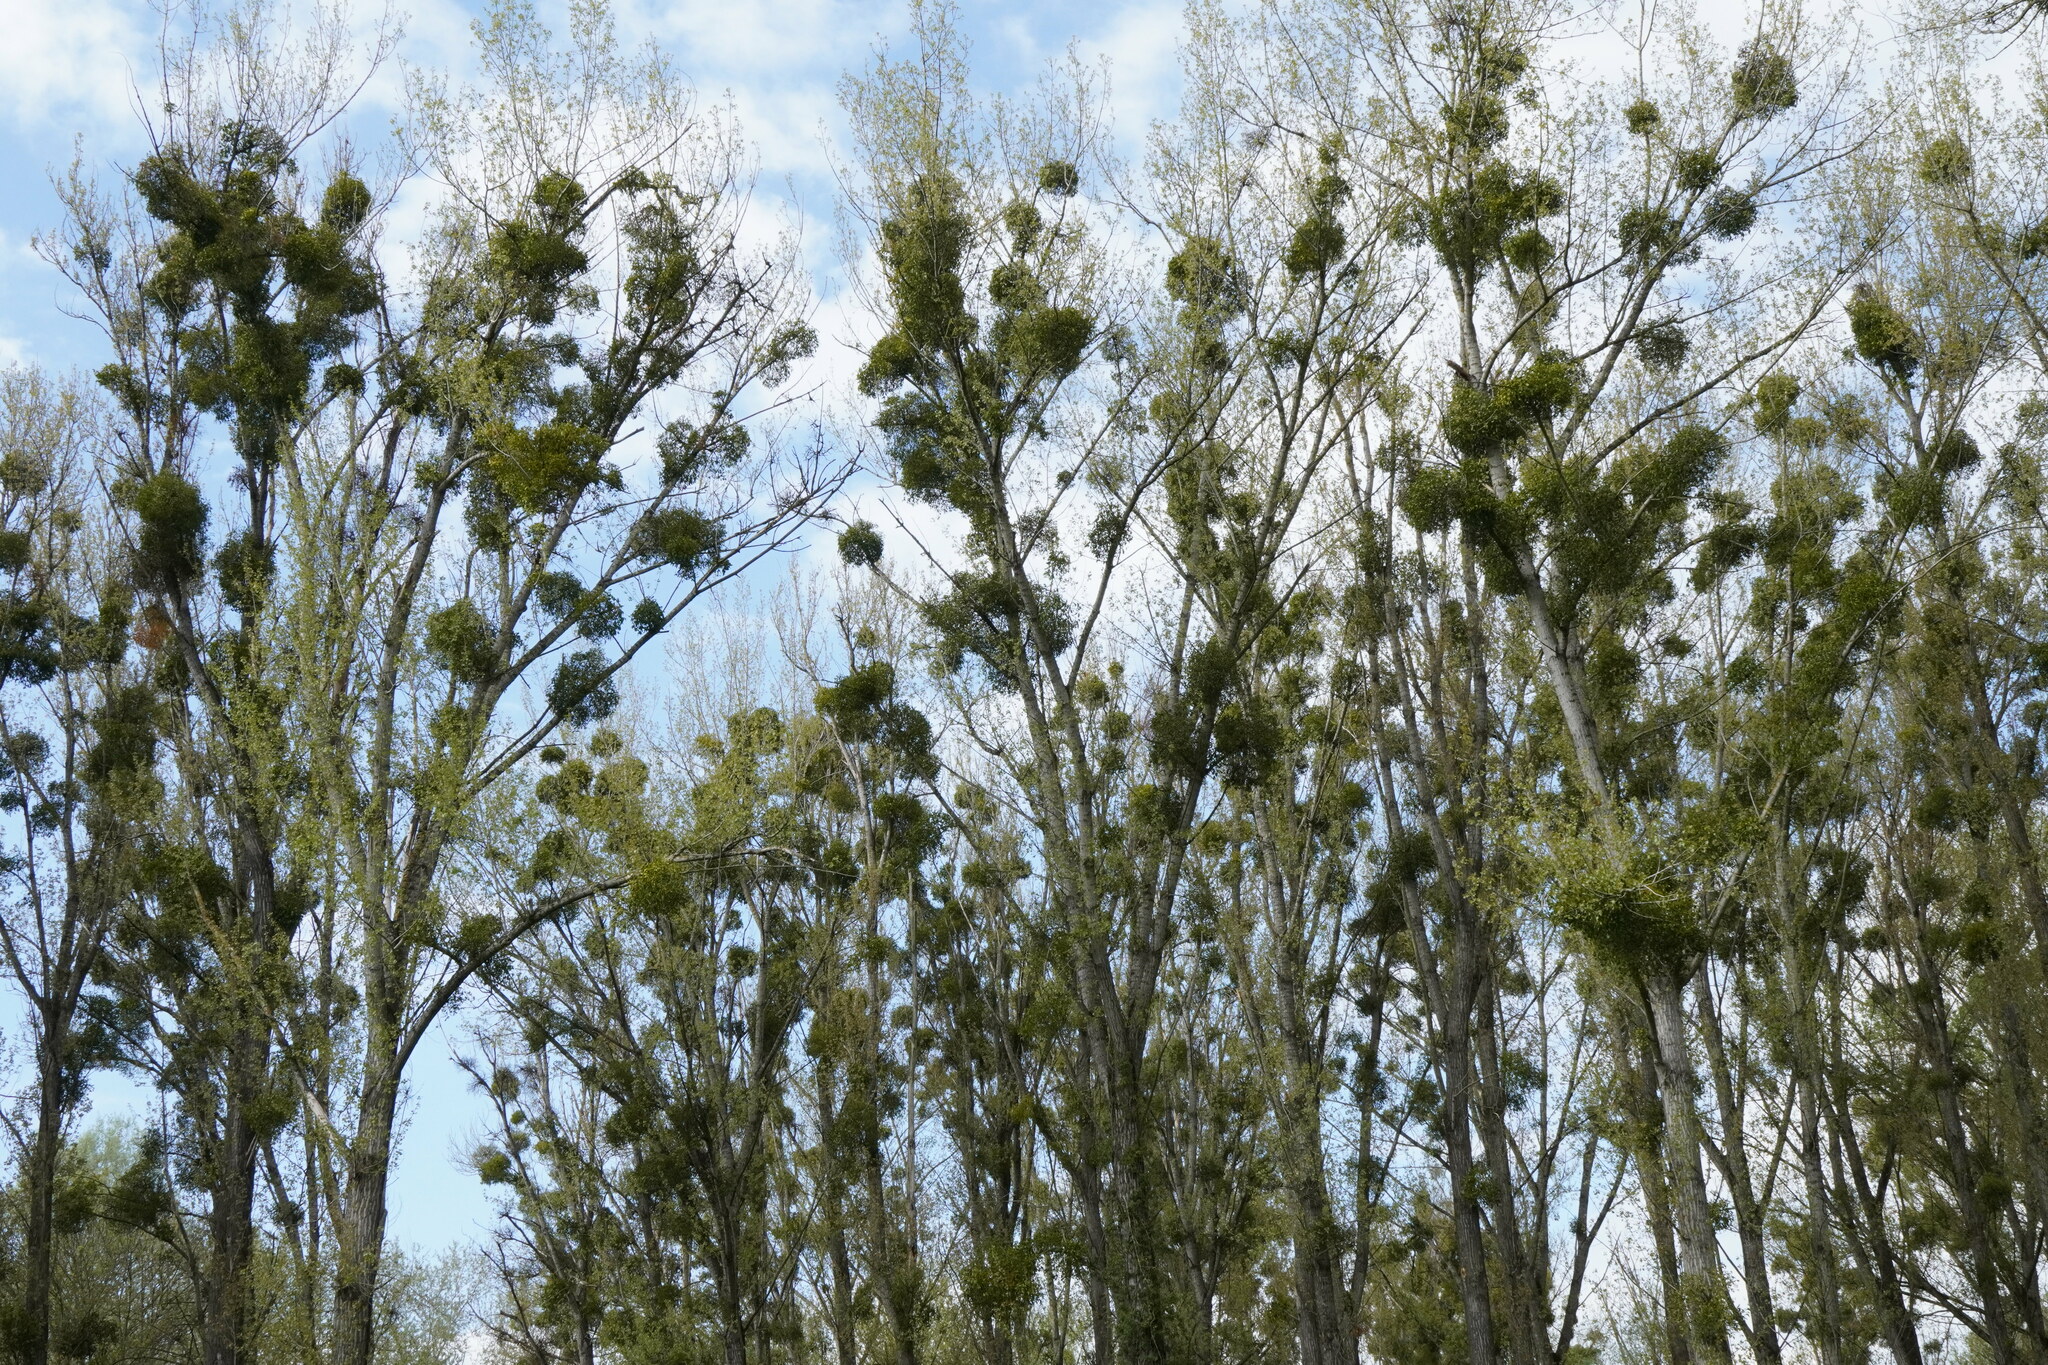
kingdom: Plantae
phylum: Tracheophyta
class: Magnoliopsida
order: Santalales
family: Viscaceae
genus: Viscum
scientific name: Viscum album
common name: Mistletoe
